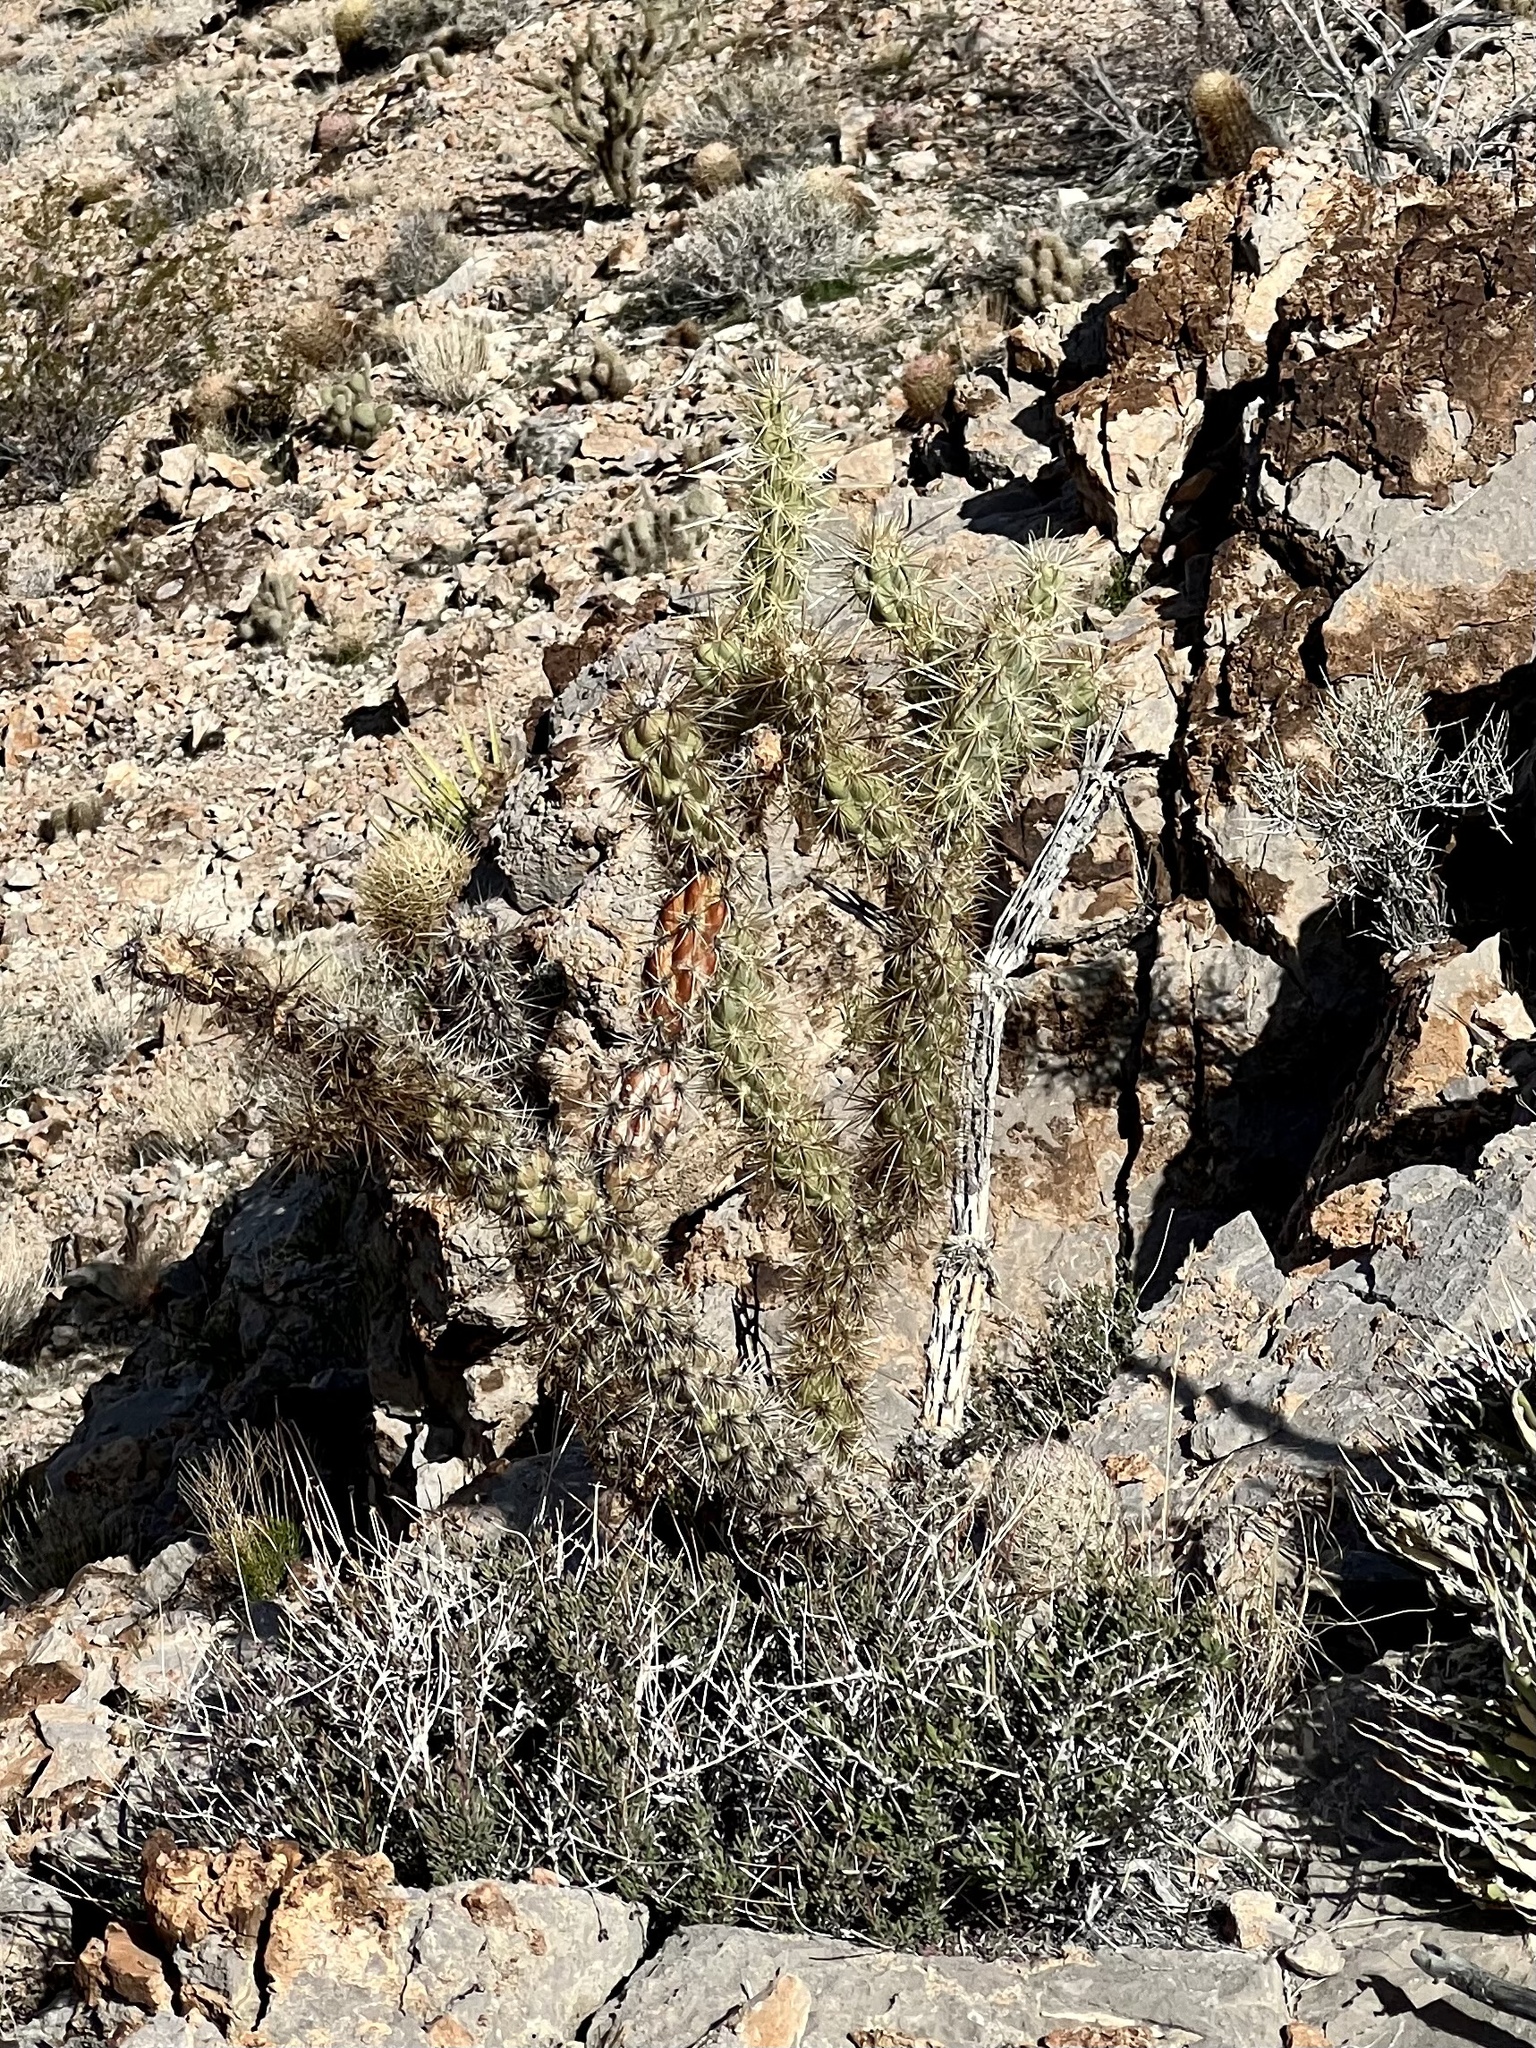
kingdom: Plantae
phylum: Tracheophyta
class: Magnoliopsida
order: Caryophyllales
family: Cactaceae
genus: Cylindropuntia
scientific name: Cylindropuntia acanthocarpa
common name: Buckhorn cholla
